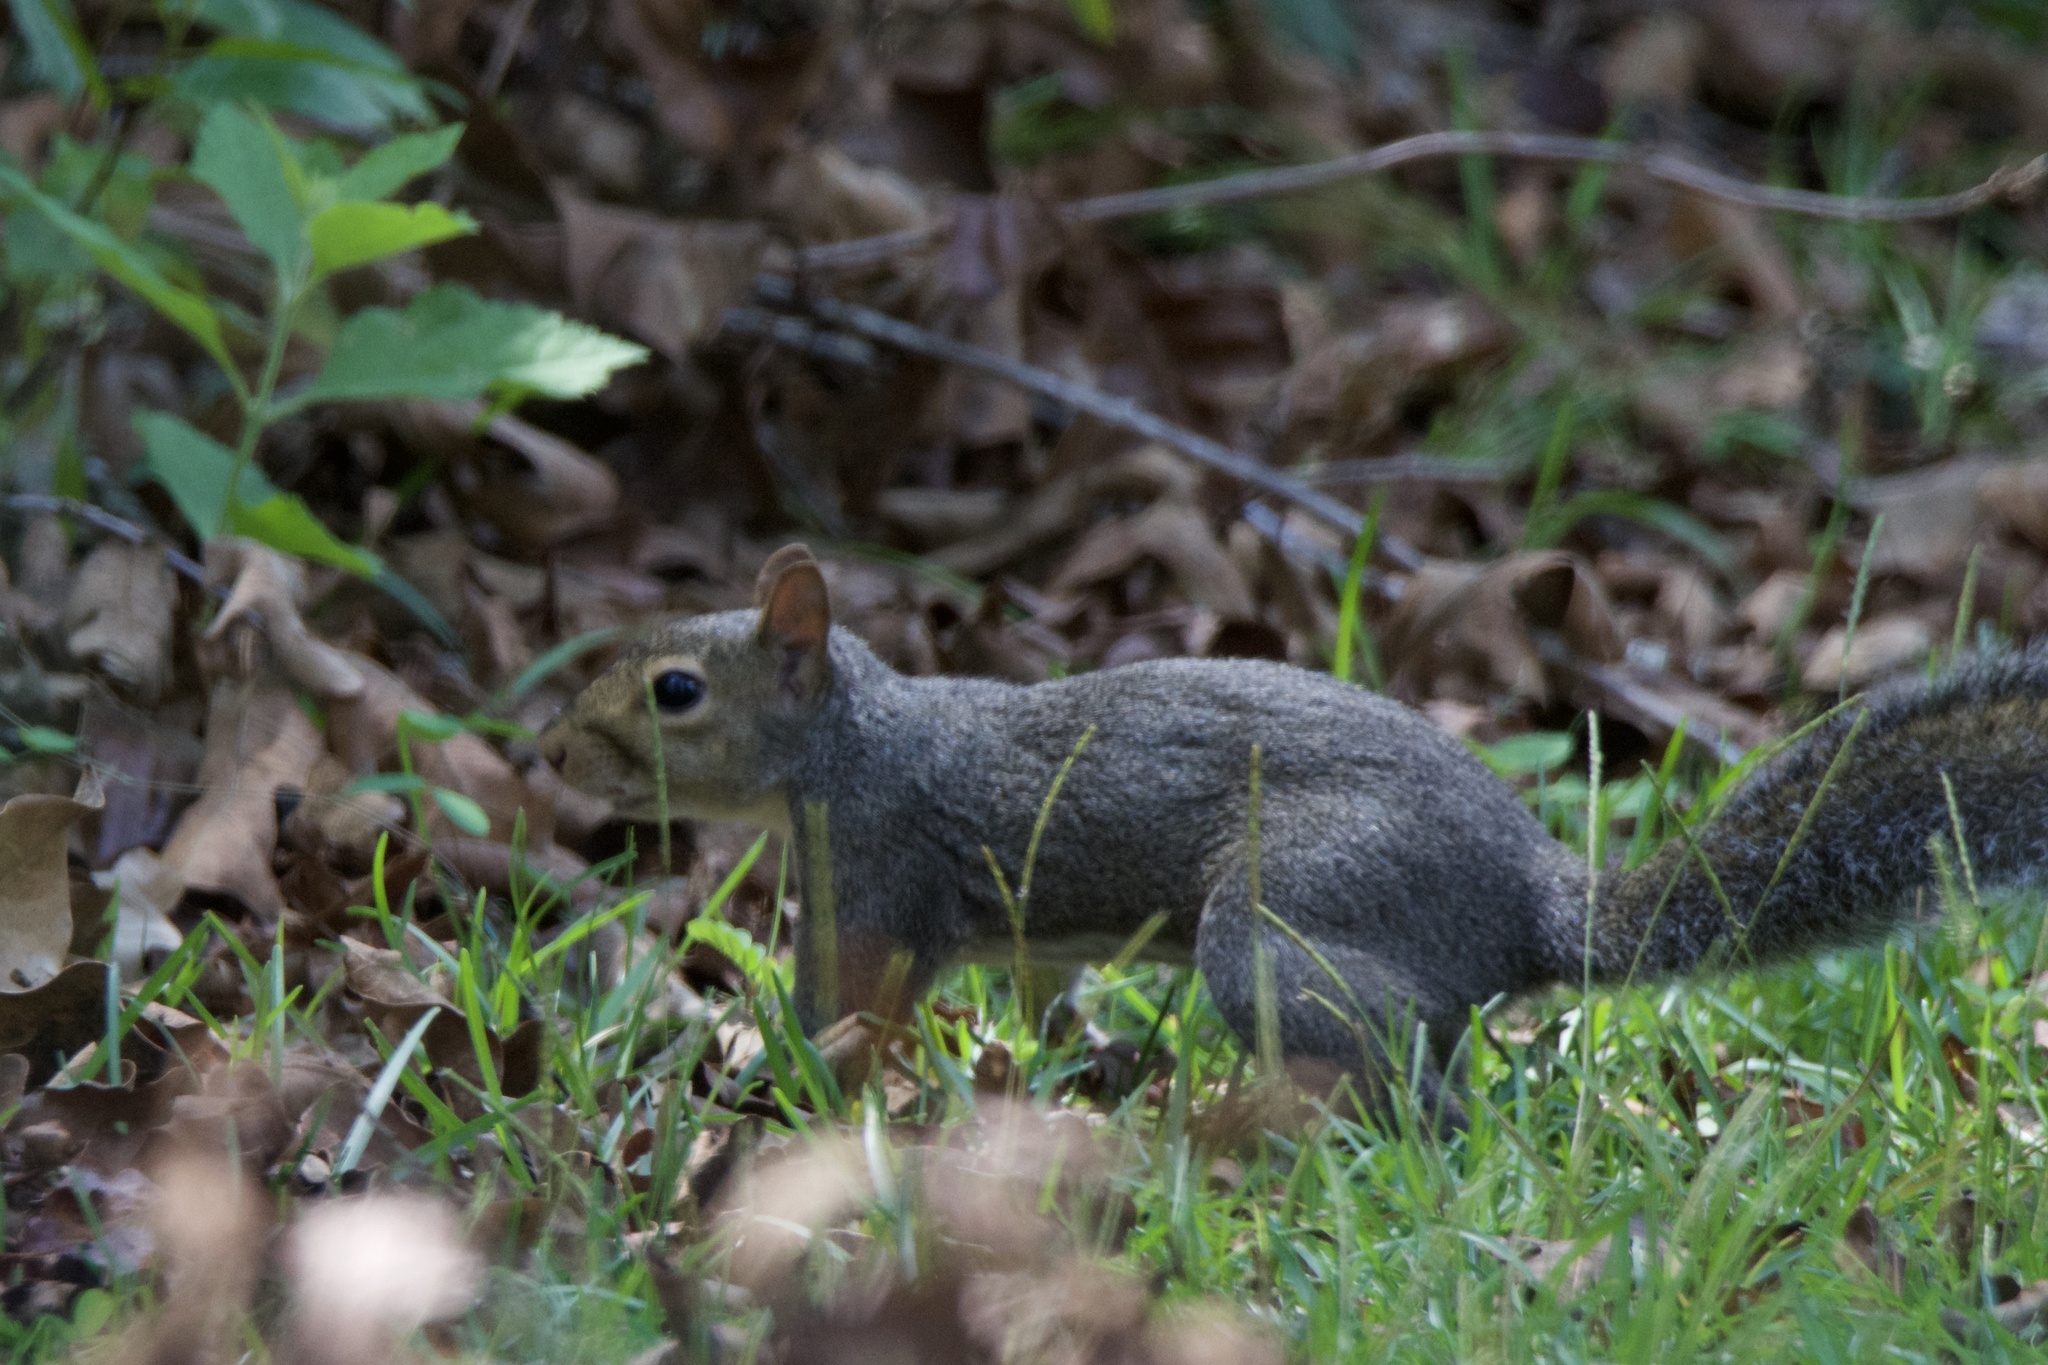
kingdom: Animalia
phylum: Chordata
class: Mammalia
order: Rodentia
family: Sciuridae
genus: Sciurus
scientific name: Sciurus carolinensis
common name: Eastern gray squirrel
